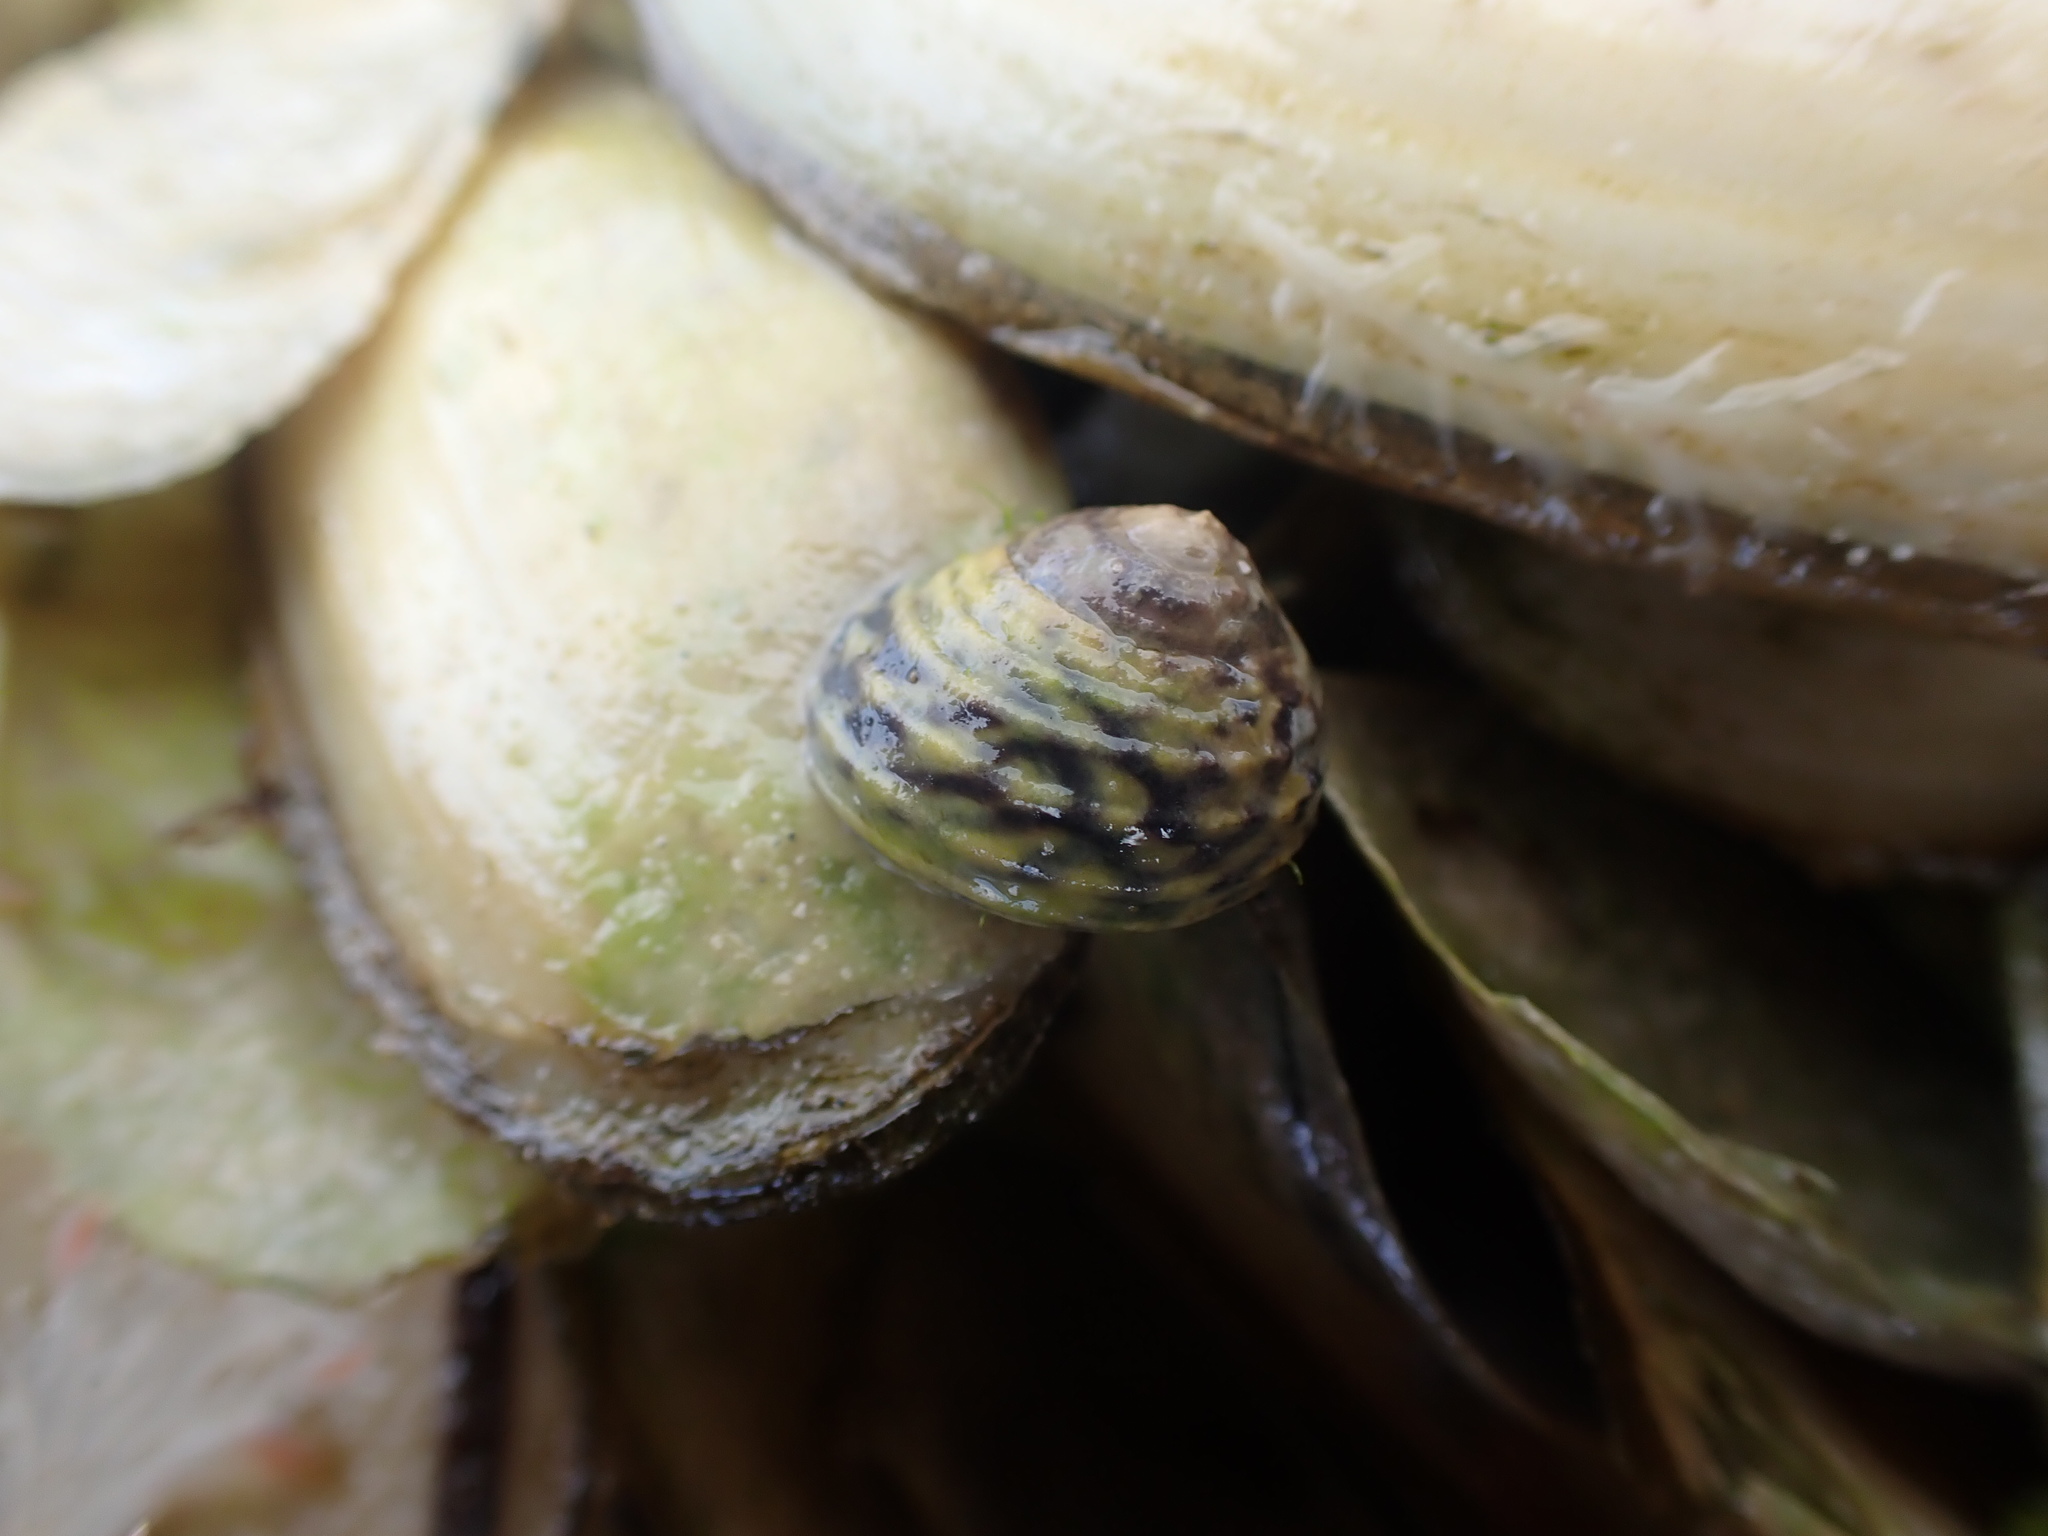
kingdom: Animalia
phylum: Mollusca
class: Gastropoda
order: Trochida
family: Trochidae
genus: Diloma
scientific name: Diloma subrostratum
